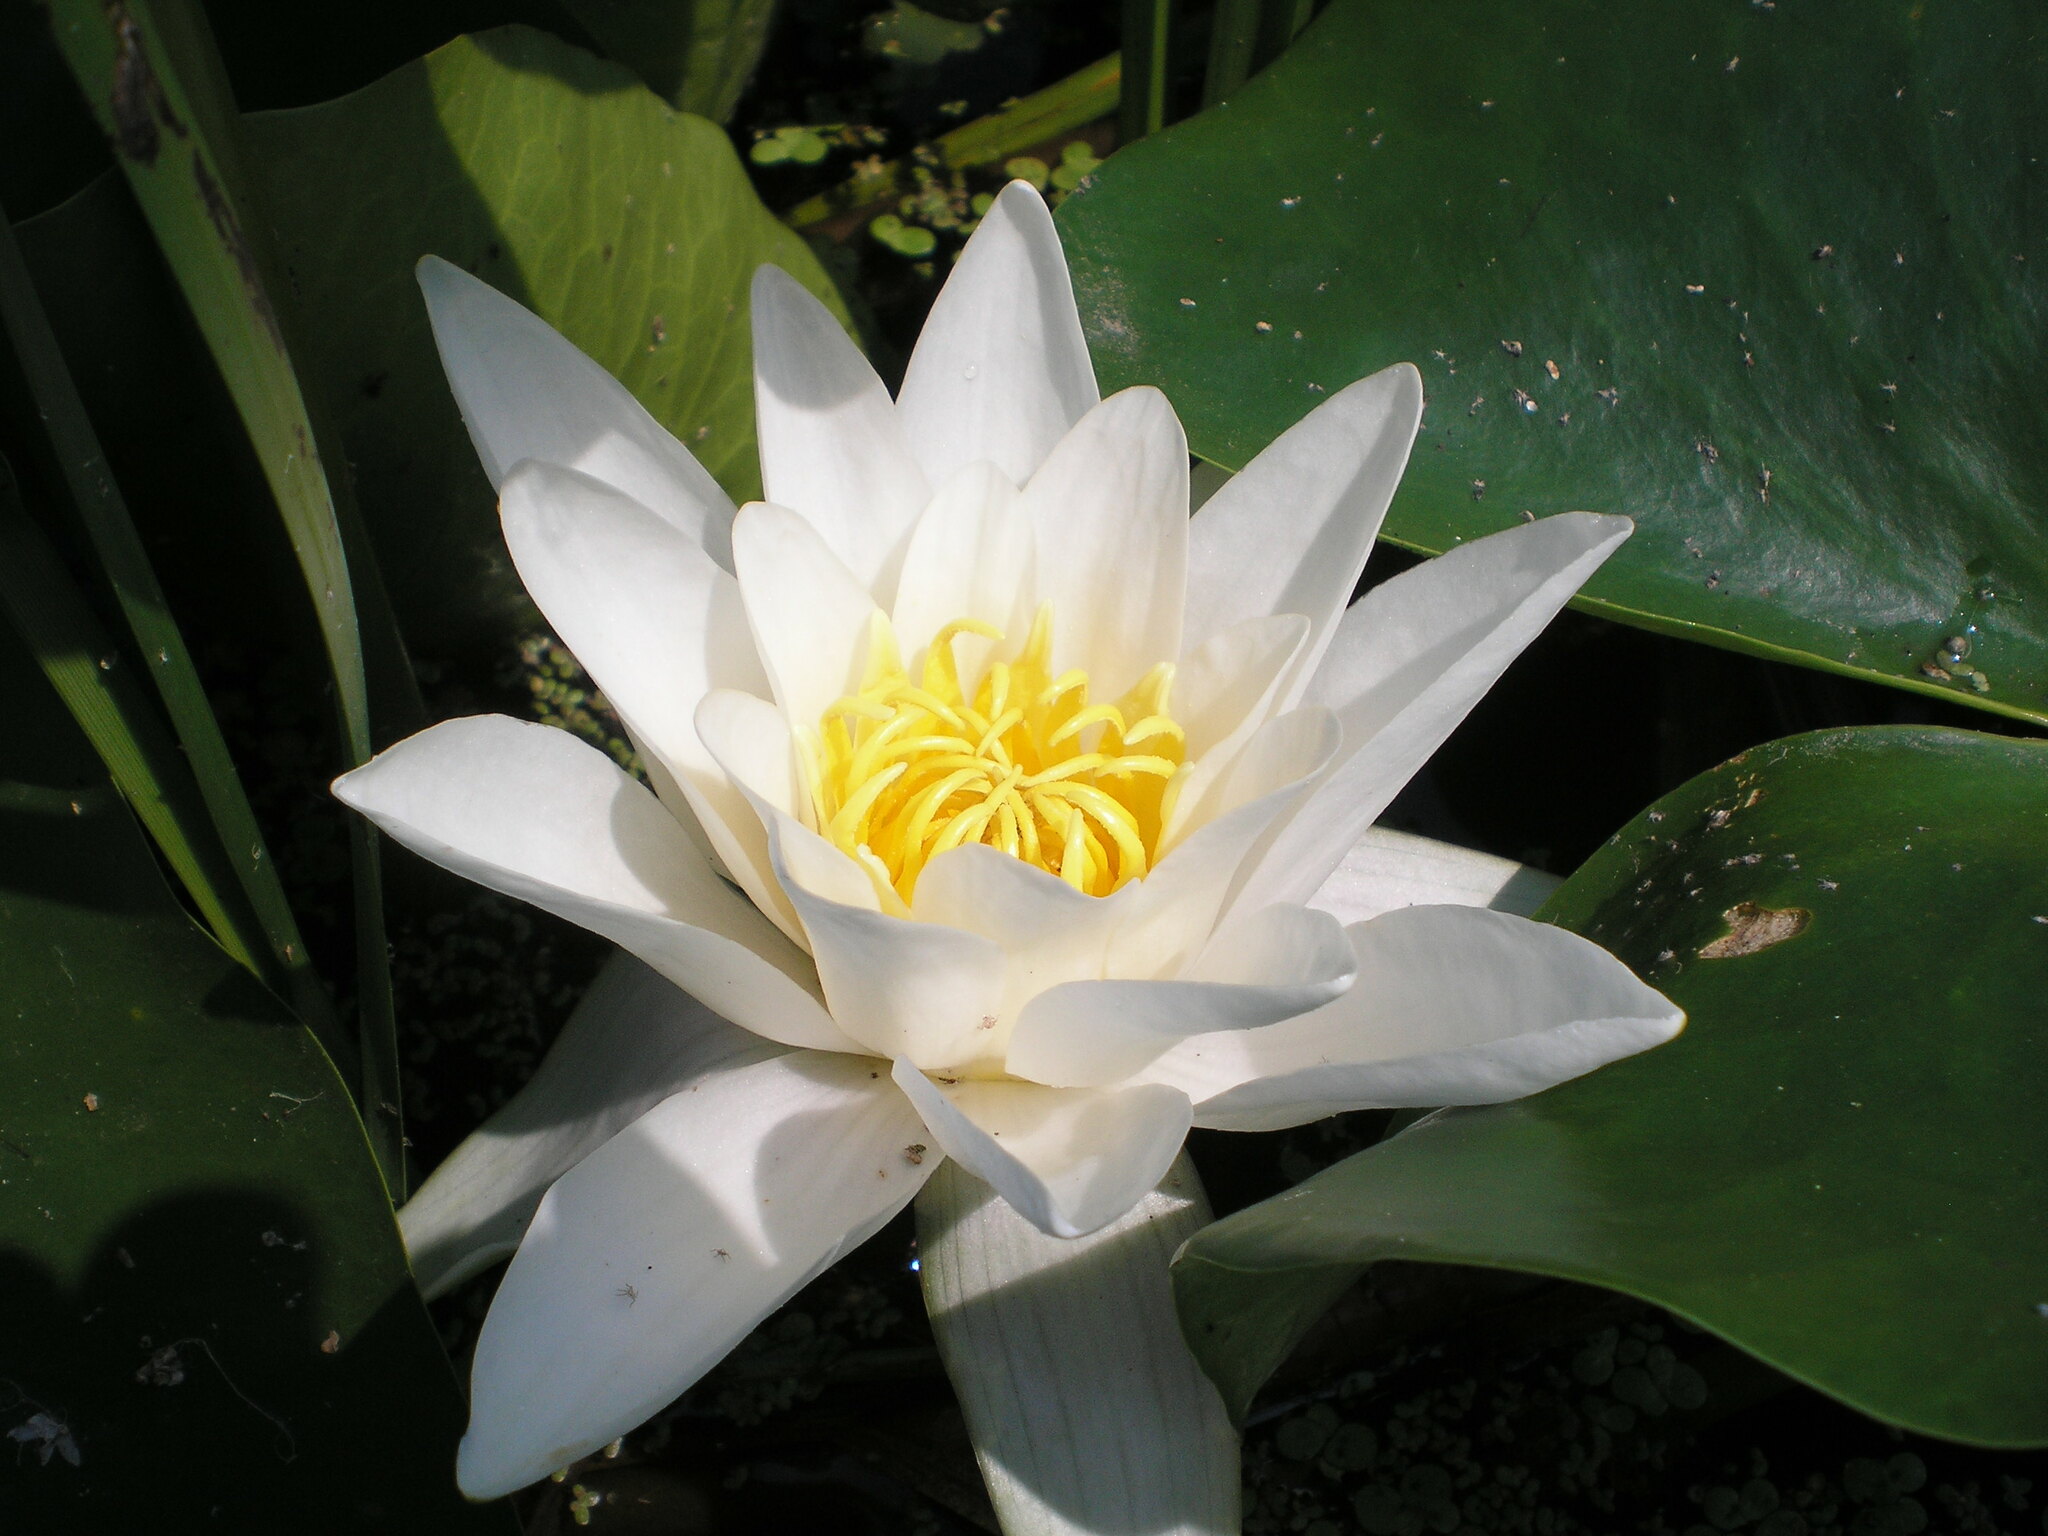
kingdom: Plantae
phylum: Tracheophyta
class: Magnoliopsida
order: Nymphaeales
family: Nymphaeaceae
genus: Nymphaea
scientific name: Nymphaea alba
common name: White water-lily
